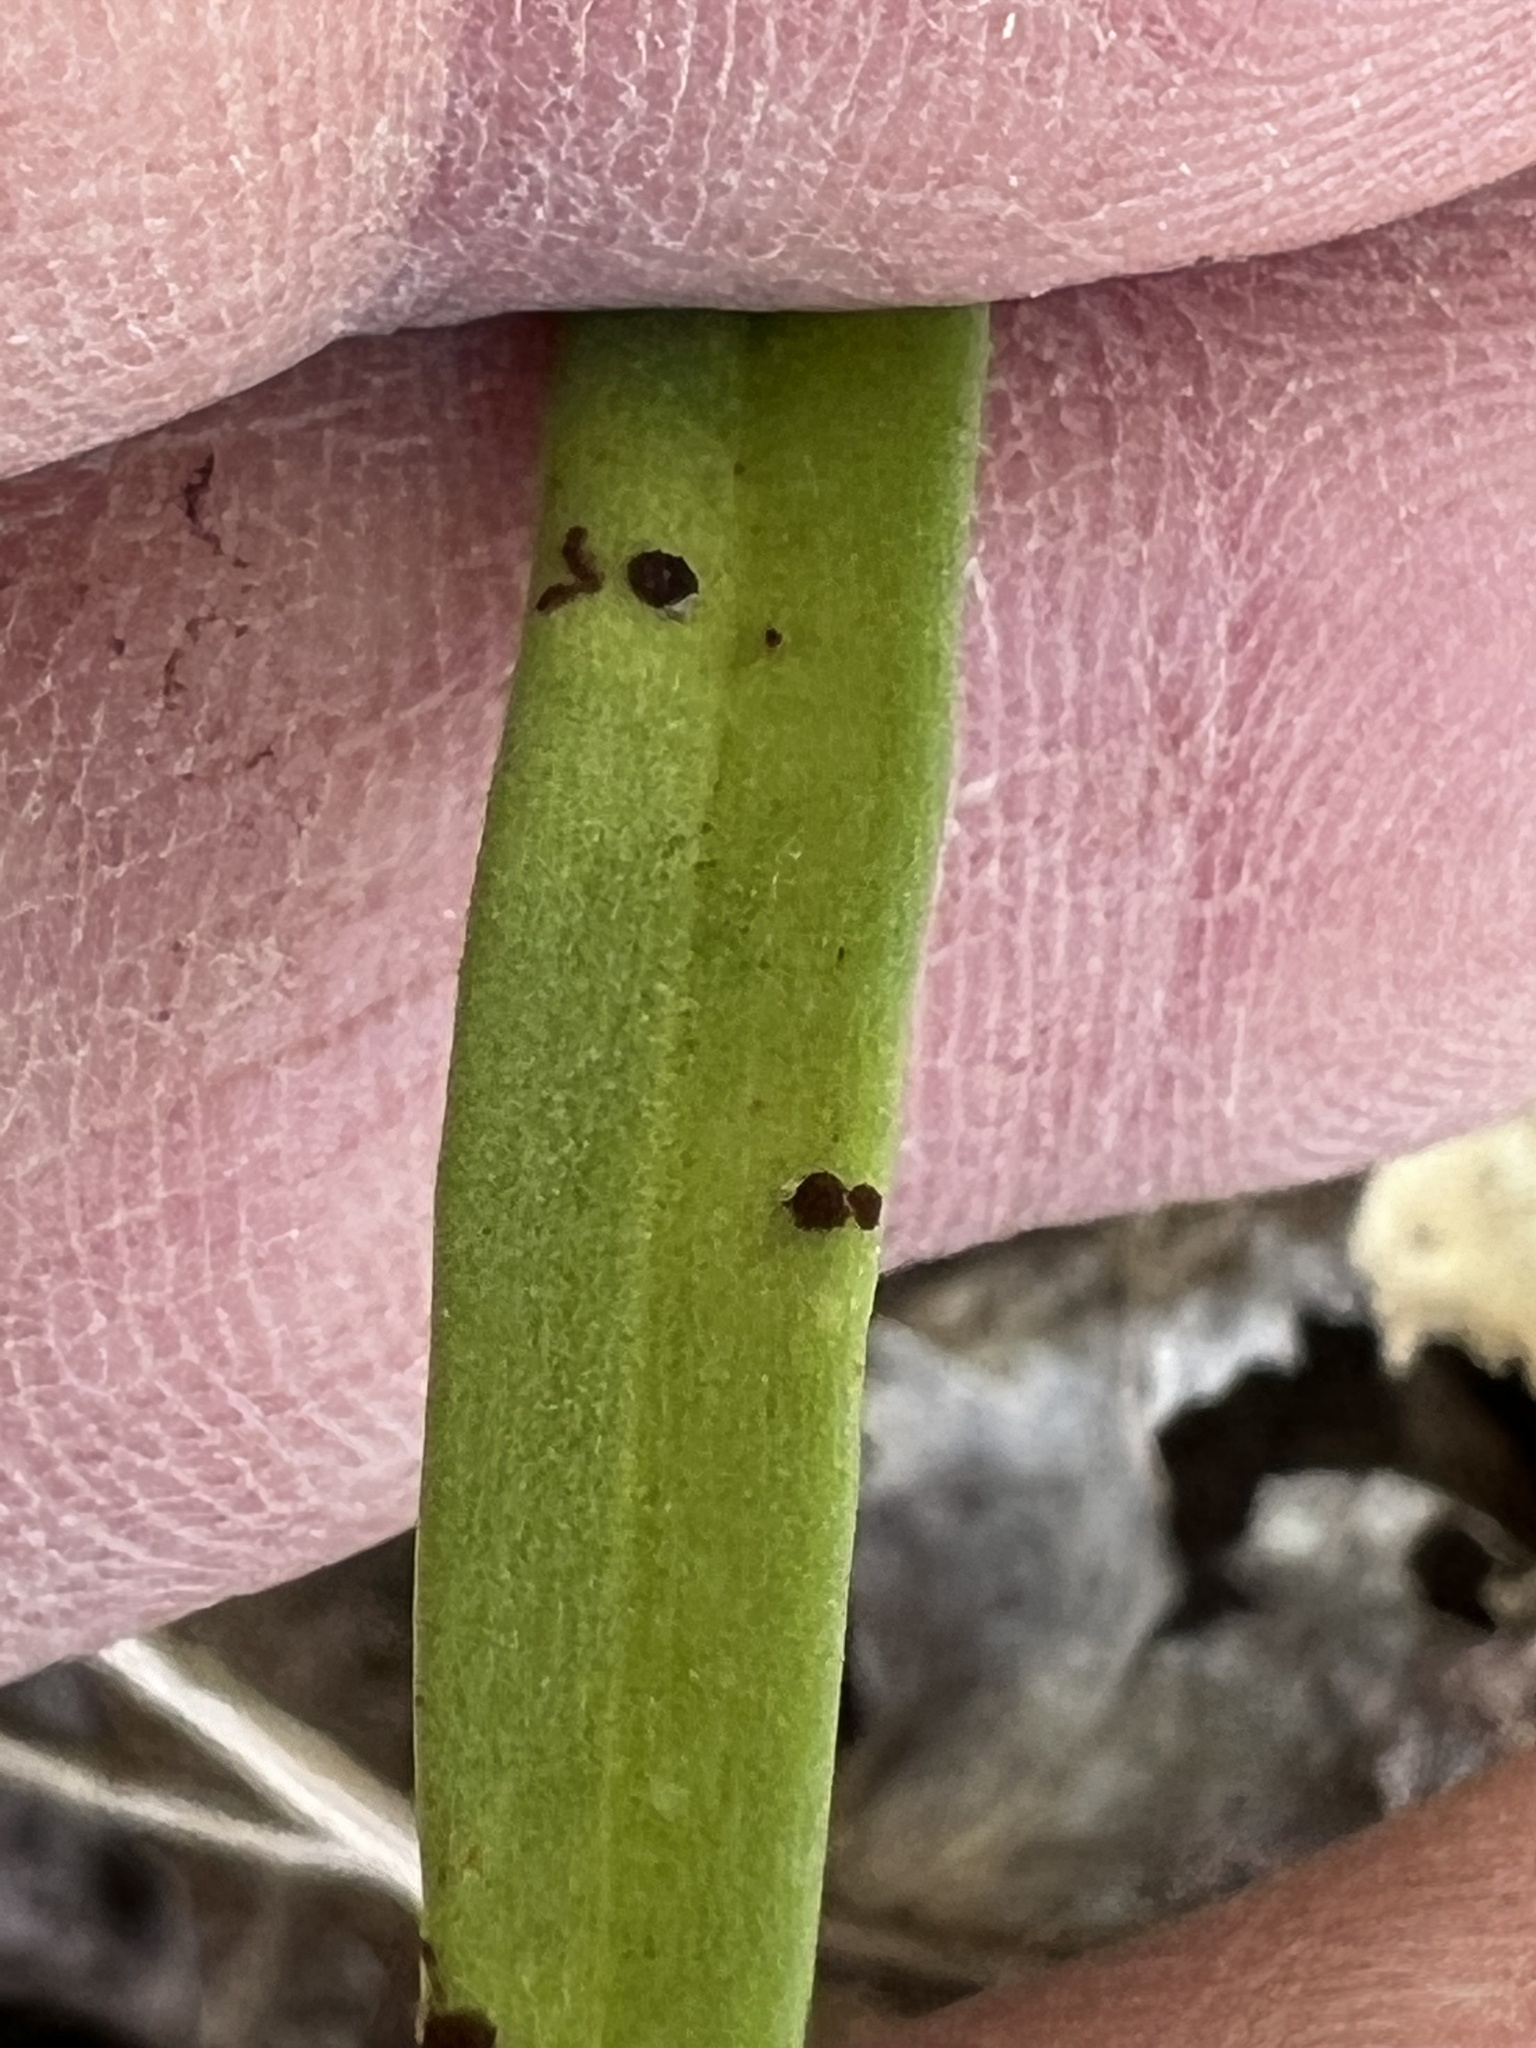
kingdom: Fungi
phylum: Basidiomycota
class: Pucciniomycetes
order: Pucciniales
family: Pucciniaceae
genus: Puccinia
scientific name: Puccinia mariae-wilsoniae
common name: Spring beauty rust
